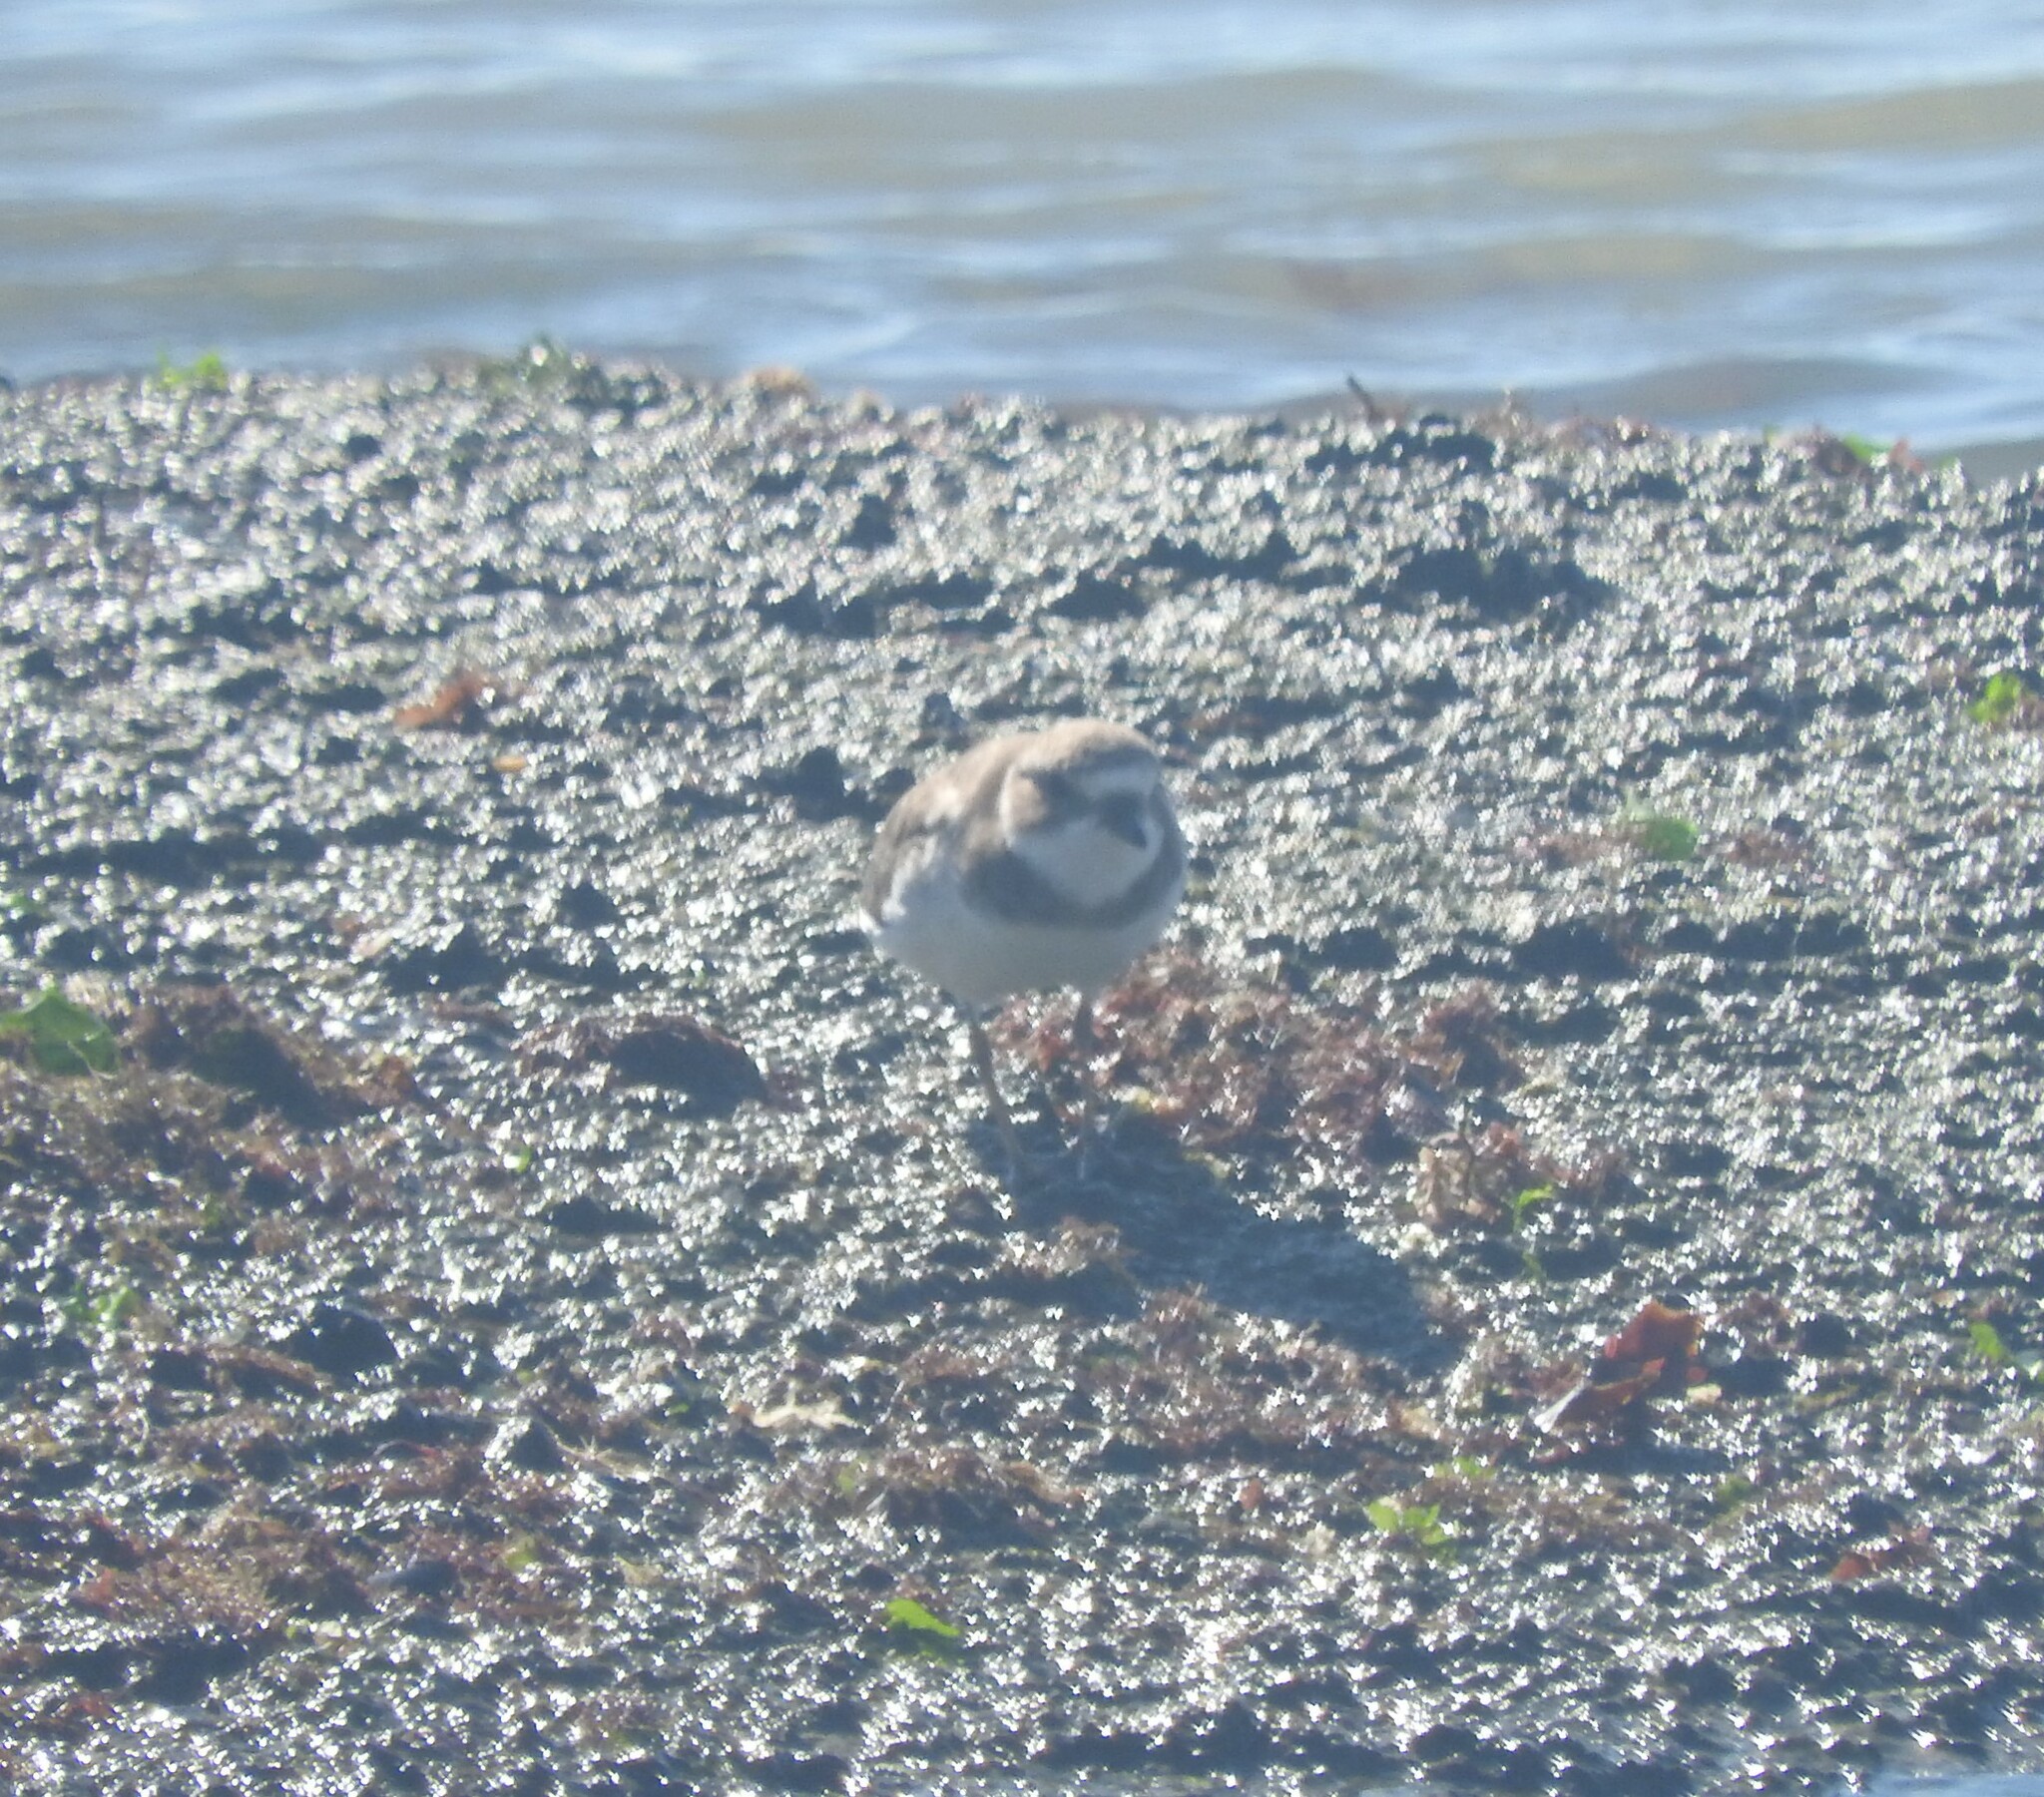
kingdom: Animalia
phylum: Chordata
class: Aves
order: Charadriiformes
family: Charadriidae
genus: Charadrius
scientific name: Charadrius semipalmatus
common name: Semipalmated plover
